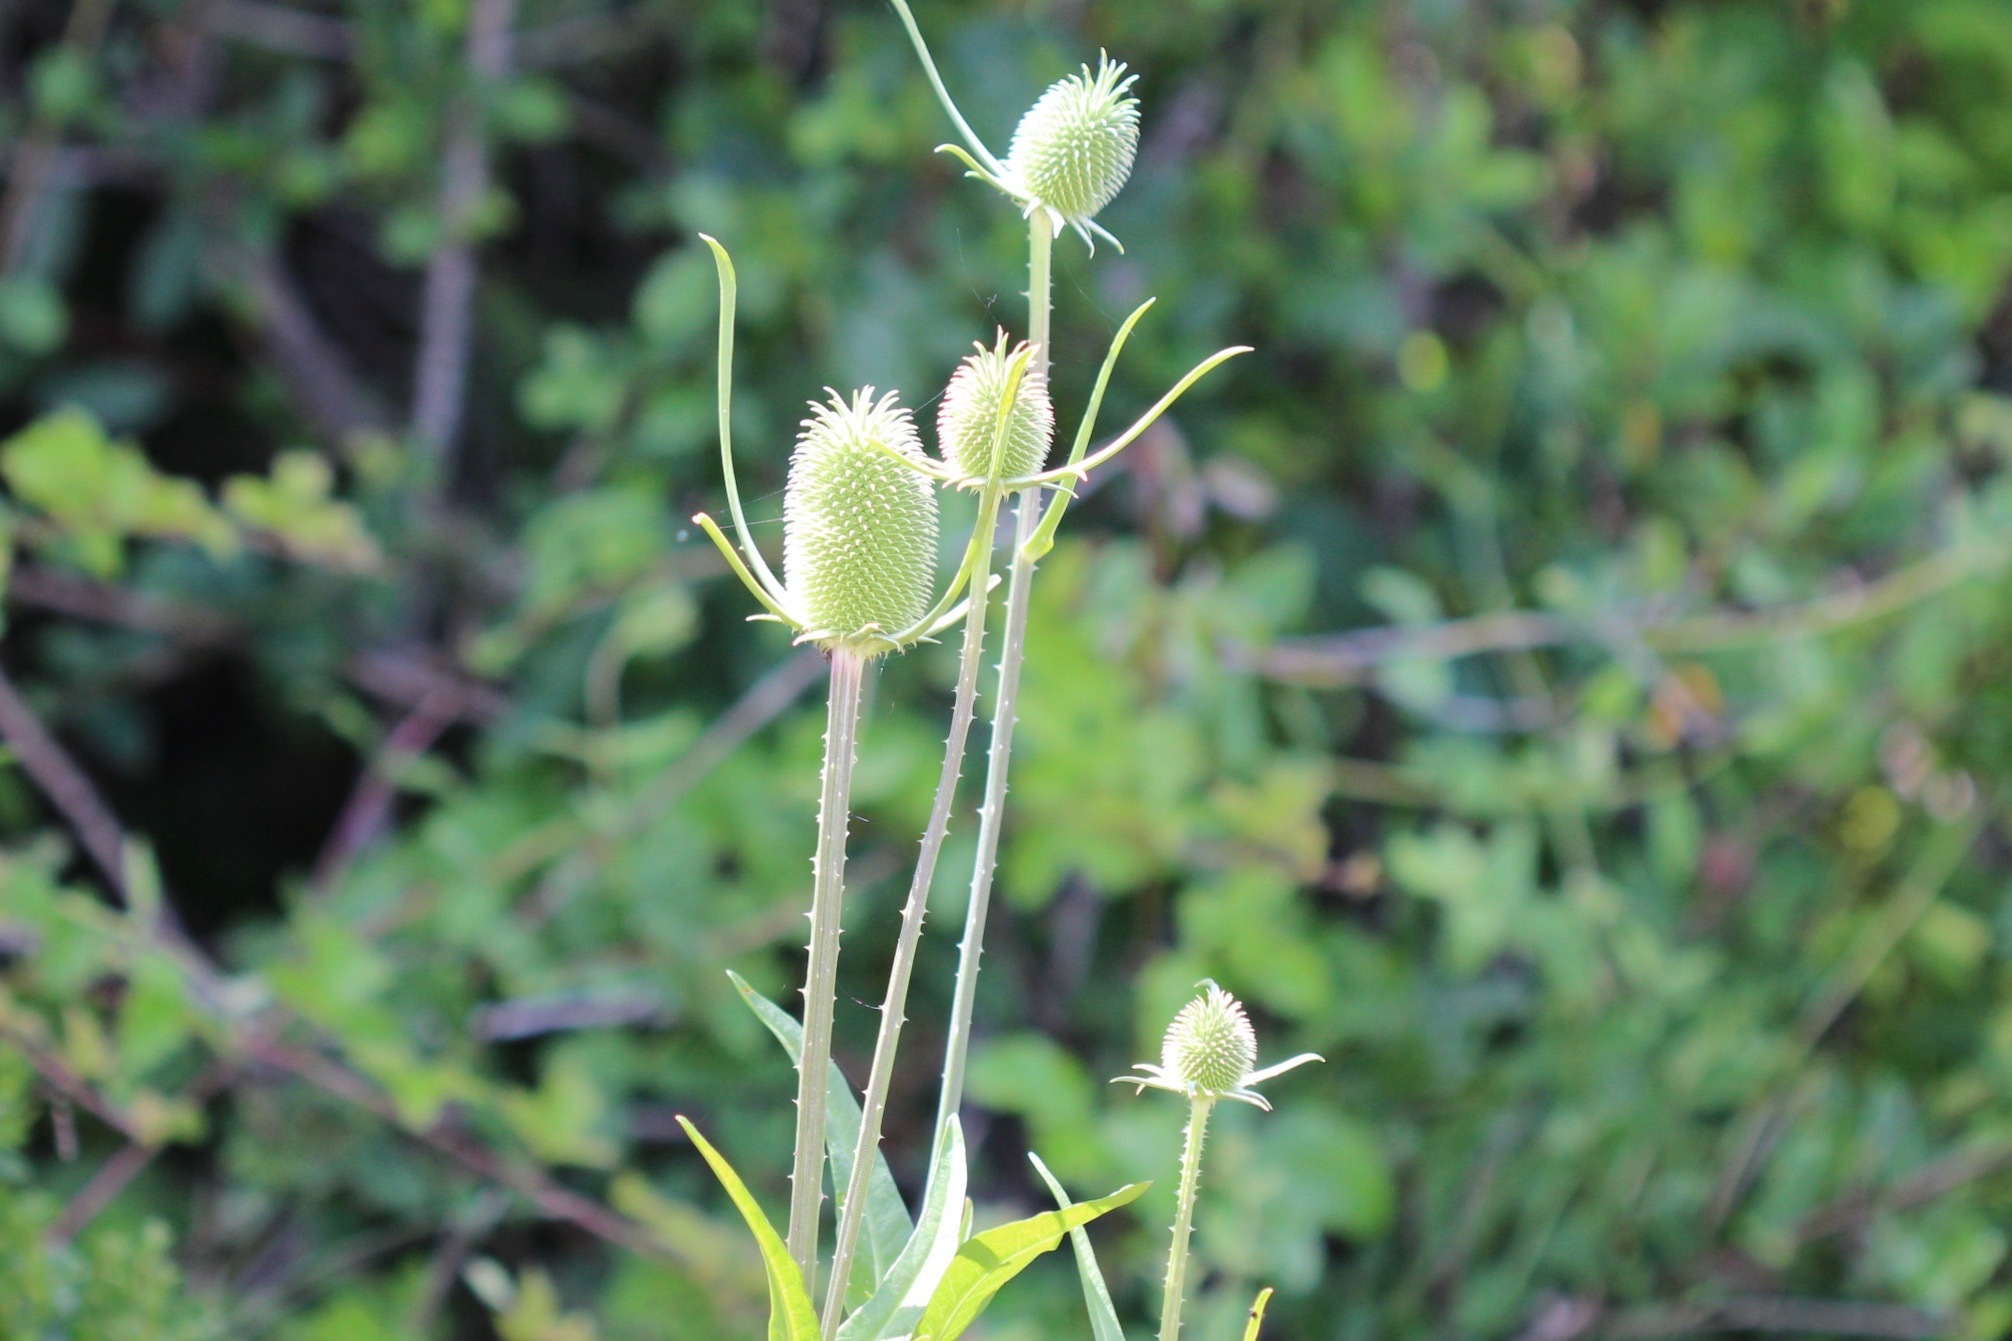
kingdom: Plantae
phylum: Tracheophyta
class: Magnoliopsida
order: Dipsacales
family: Caprifoliaceae
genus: Dipsacus
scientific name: Dipsacus sativus
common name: Fuller's teasel
